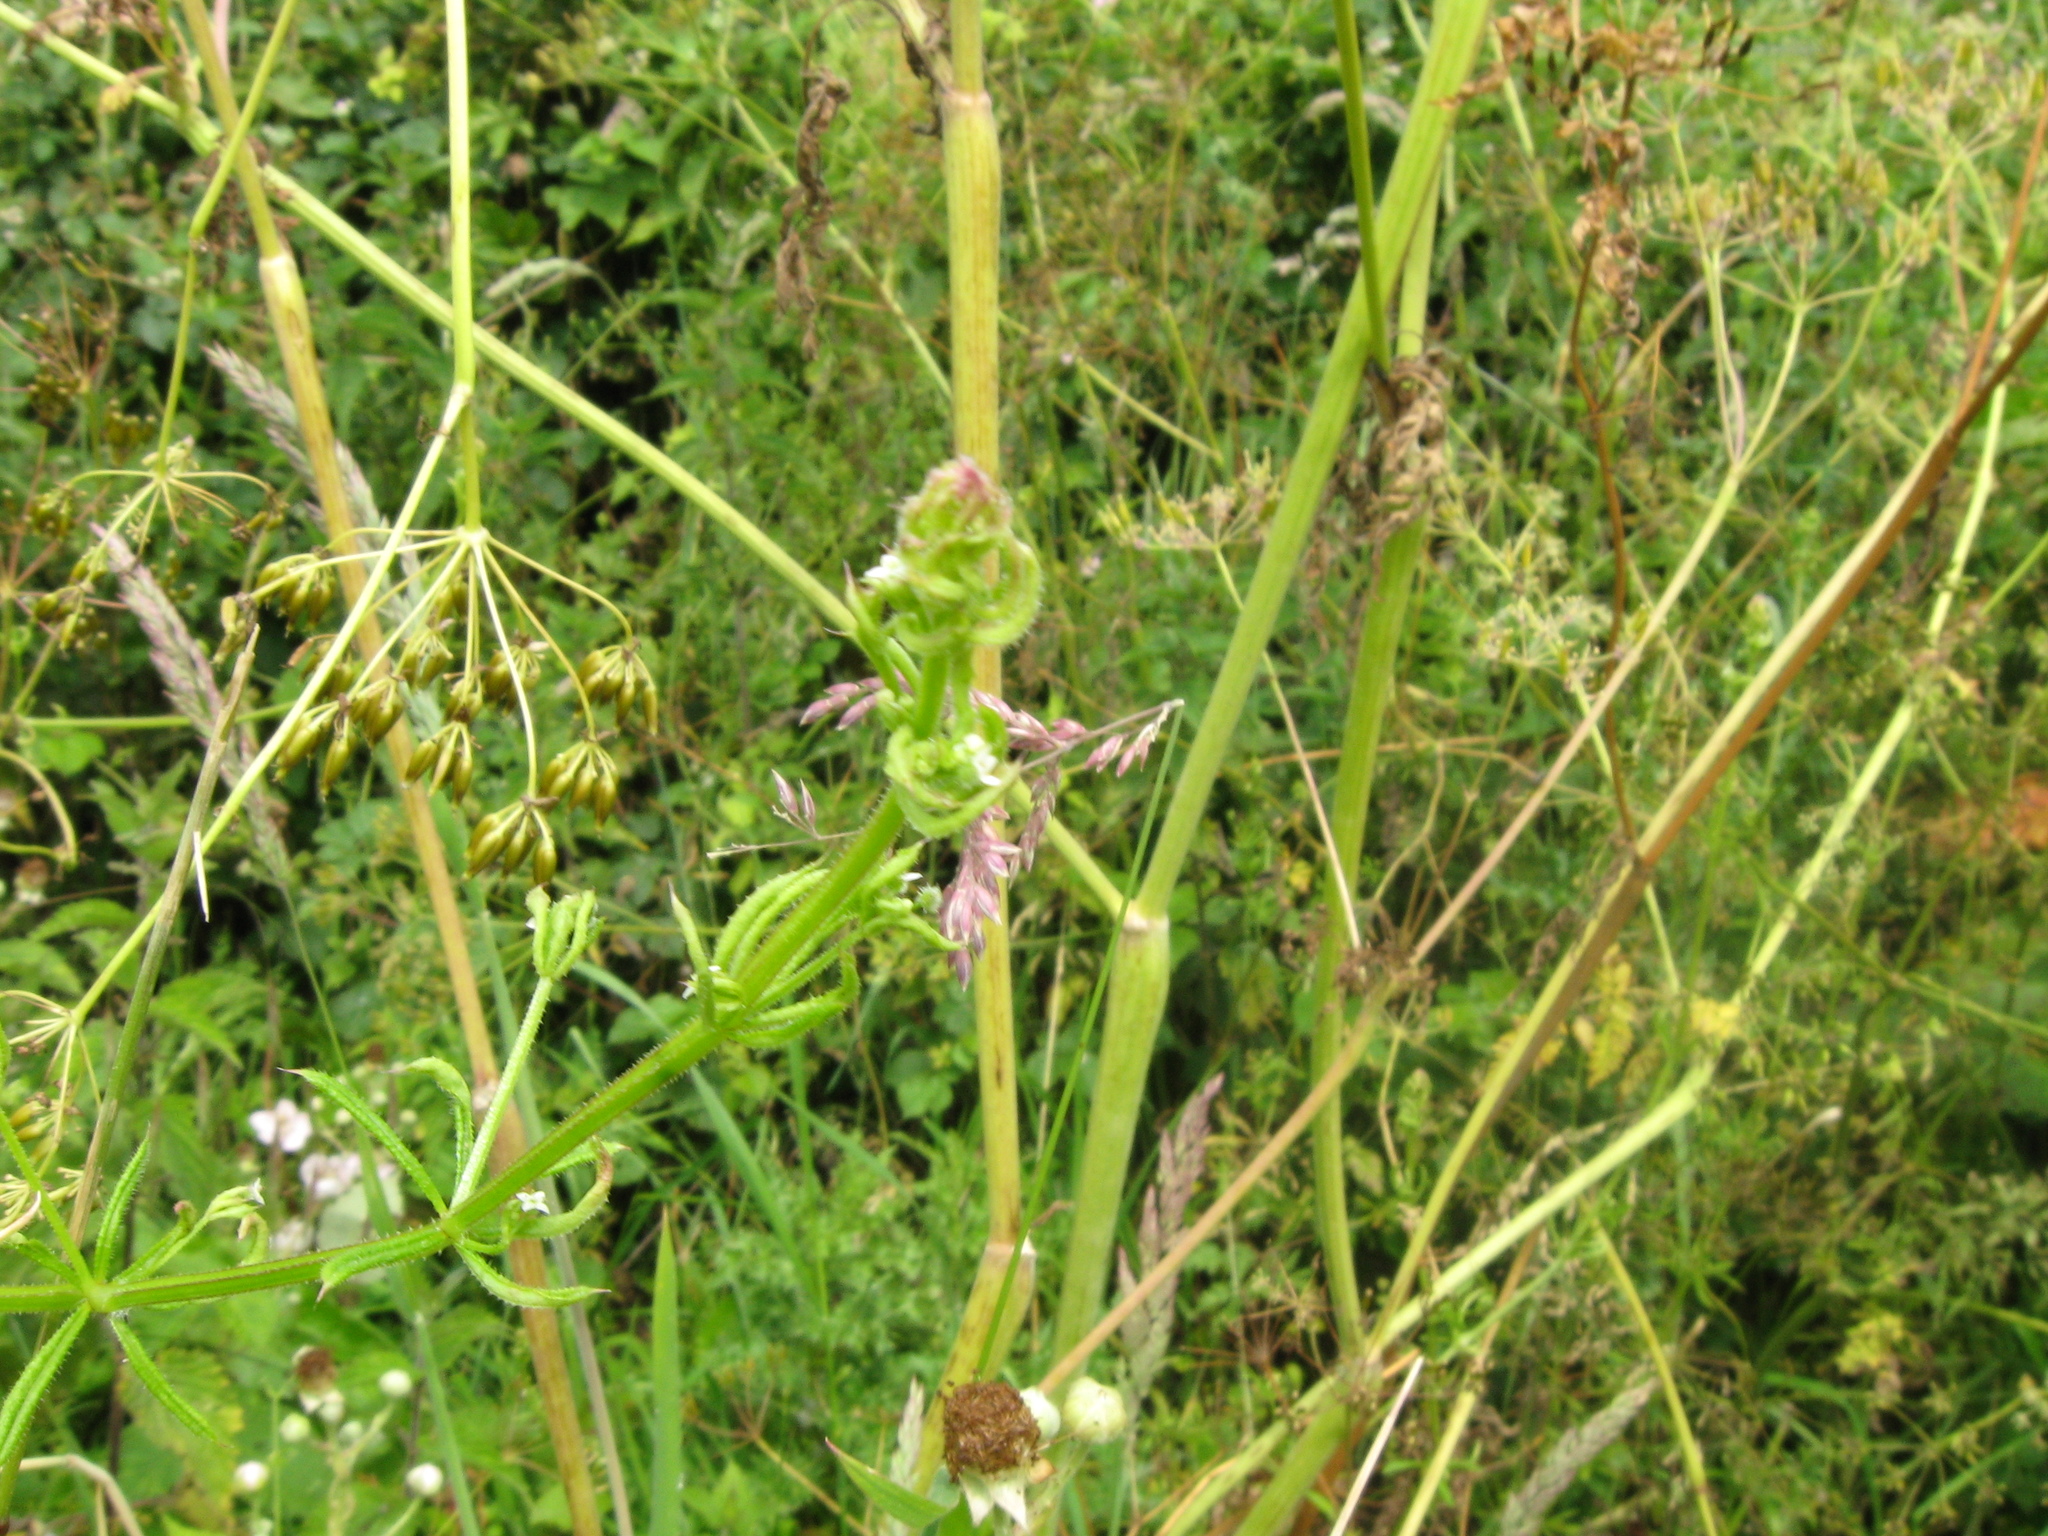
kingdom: Animalia
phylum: Arthropoda
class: Arachnida
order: Trombidiformes
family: Eriophyidae
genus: Cecidophyes
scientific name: Cecidophyes rouhollahi
